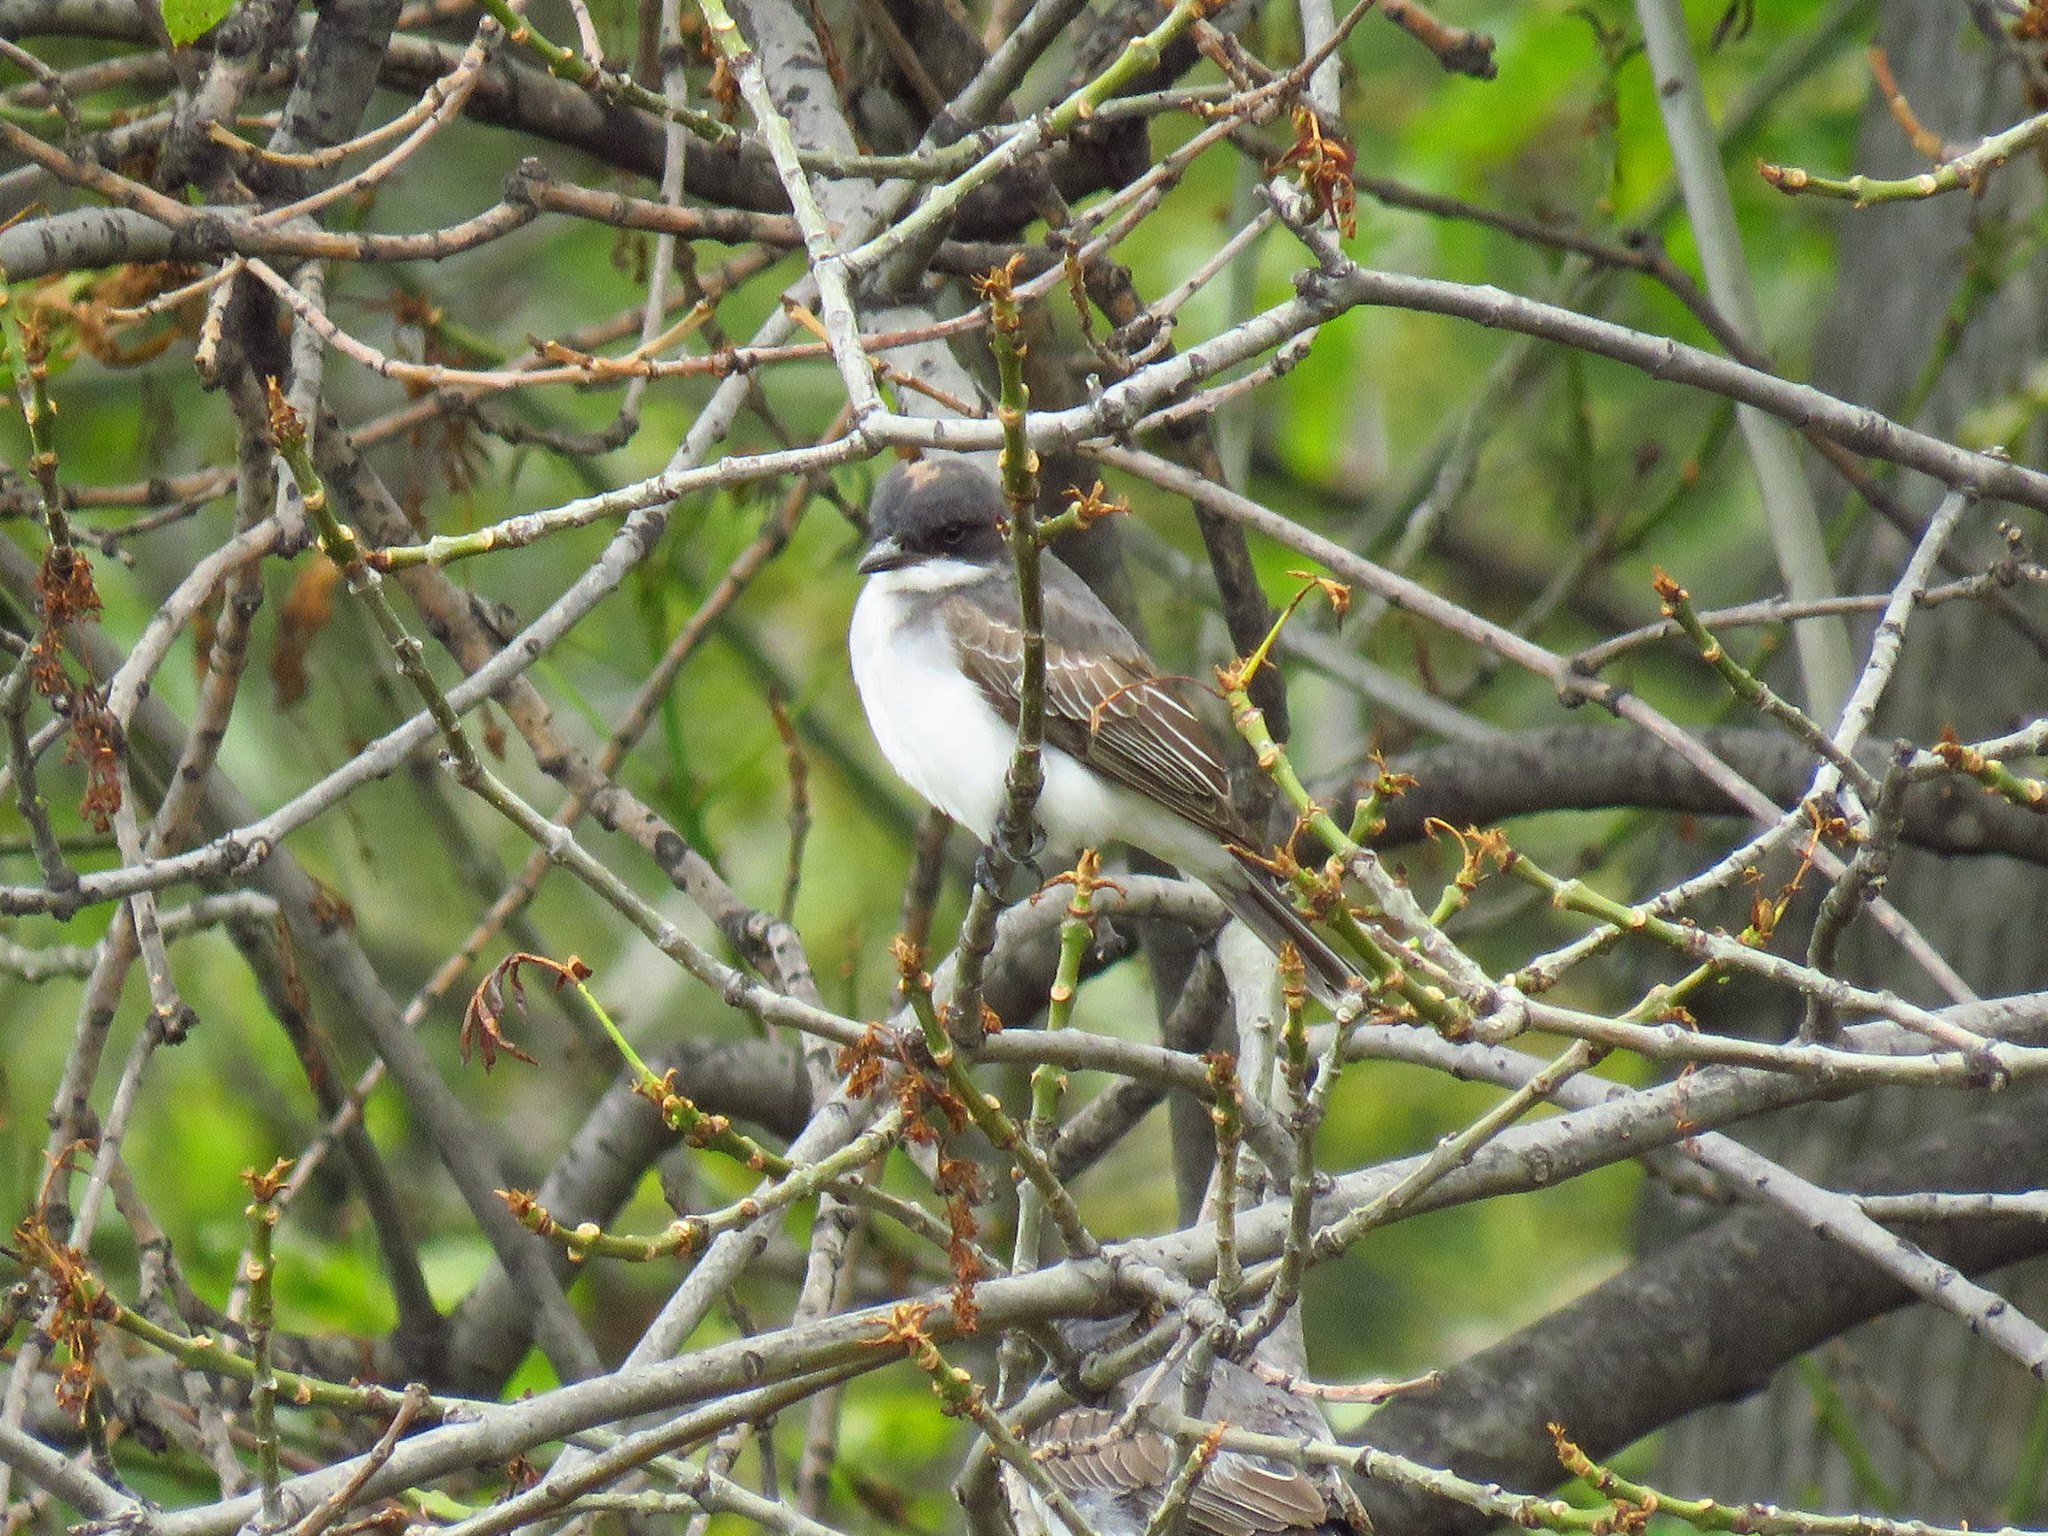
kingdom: Animalia
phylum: Chordata
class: Aves
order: Passeriformes
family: Tyrannidae
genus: Tyrannus
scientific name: Tyrannus tyrannus
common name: Eastern kingbird
